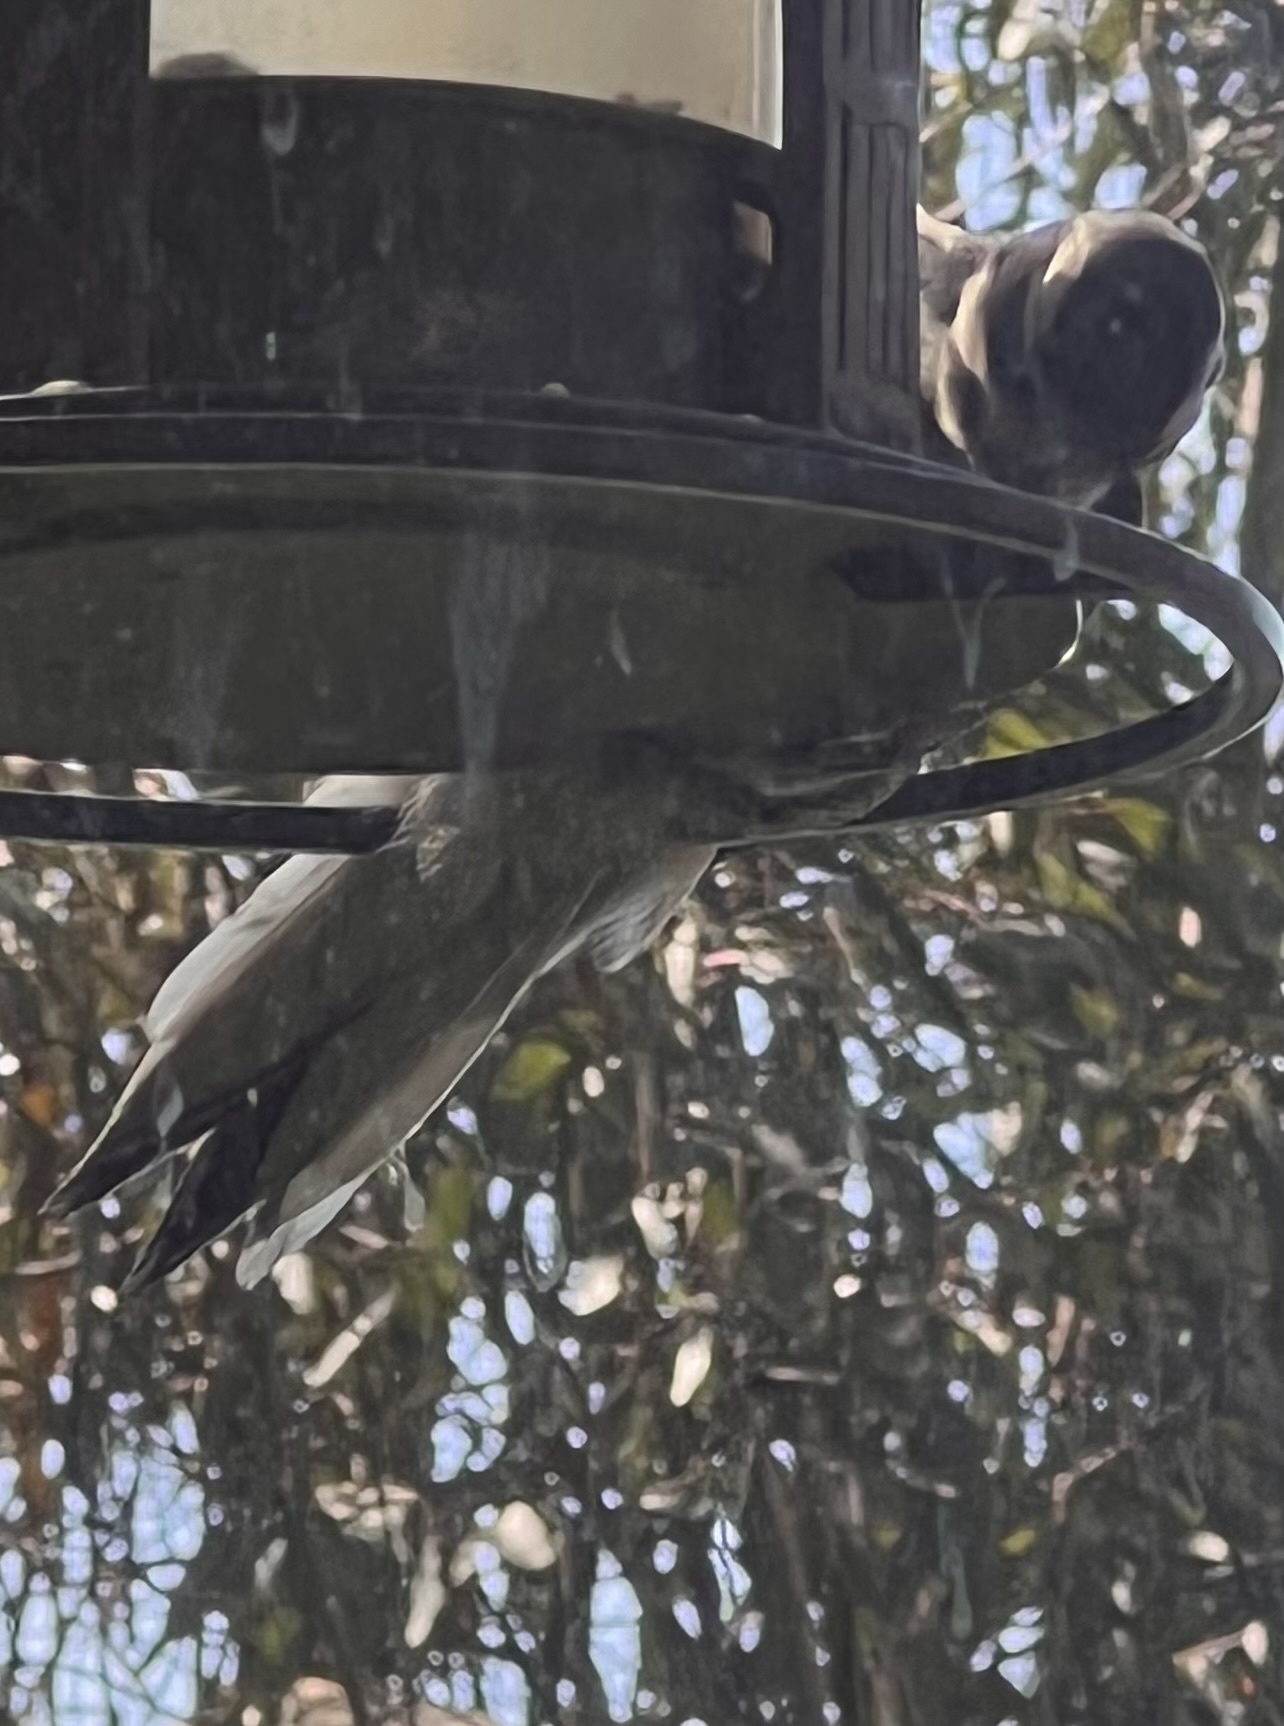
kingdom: Animalia
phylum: Chordata
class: Aves
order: Piciformes
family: Picidae
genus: Leuconotopicus
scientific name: Leuconotopicus villosus
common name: Hairy woodpecker
